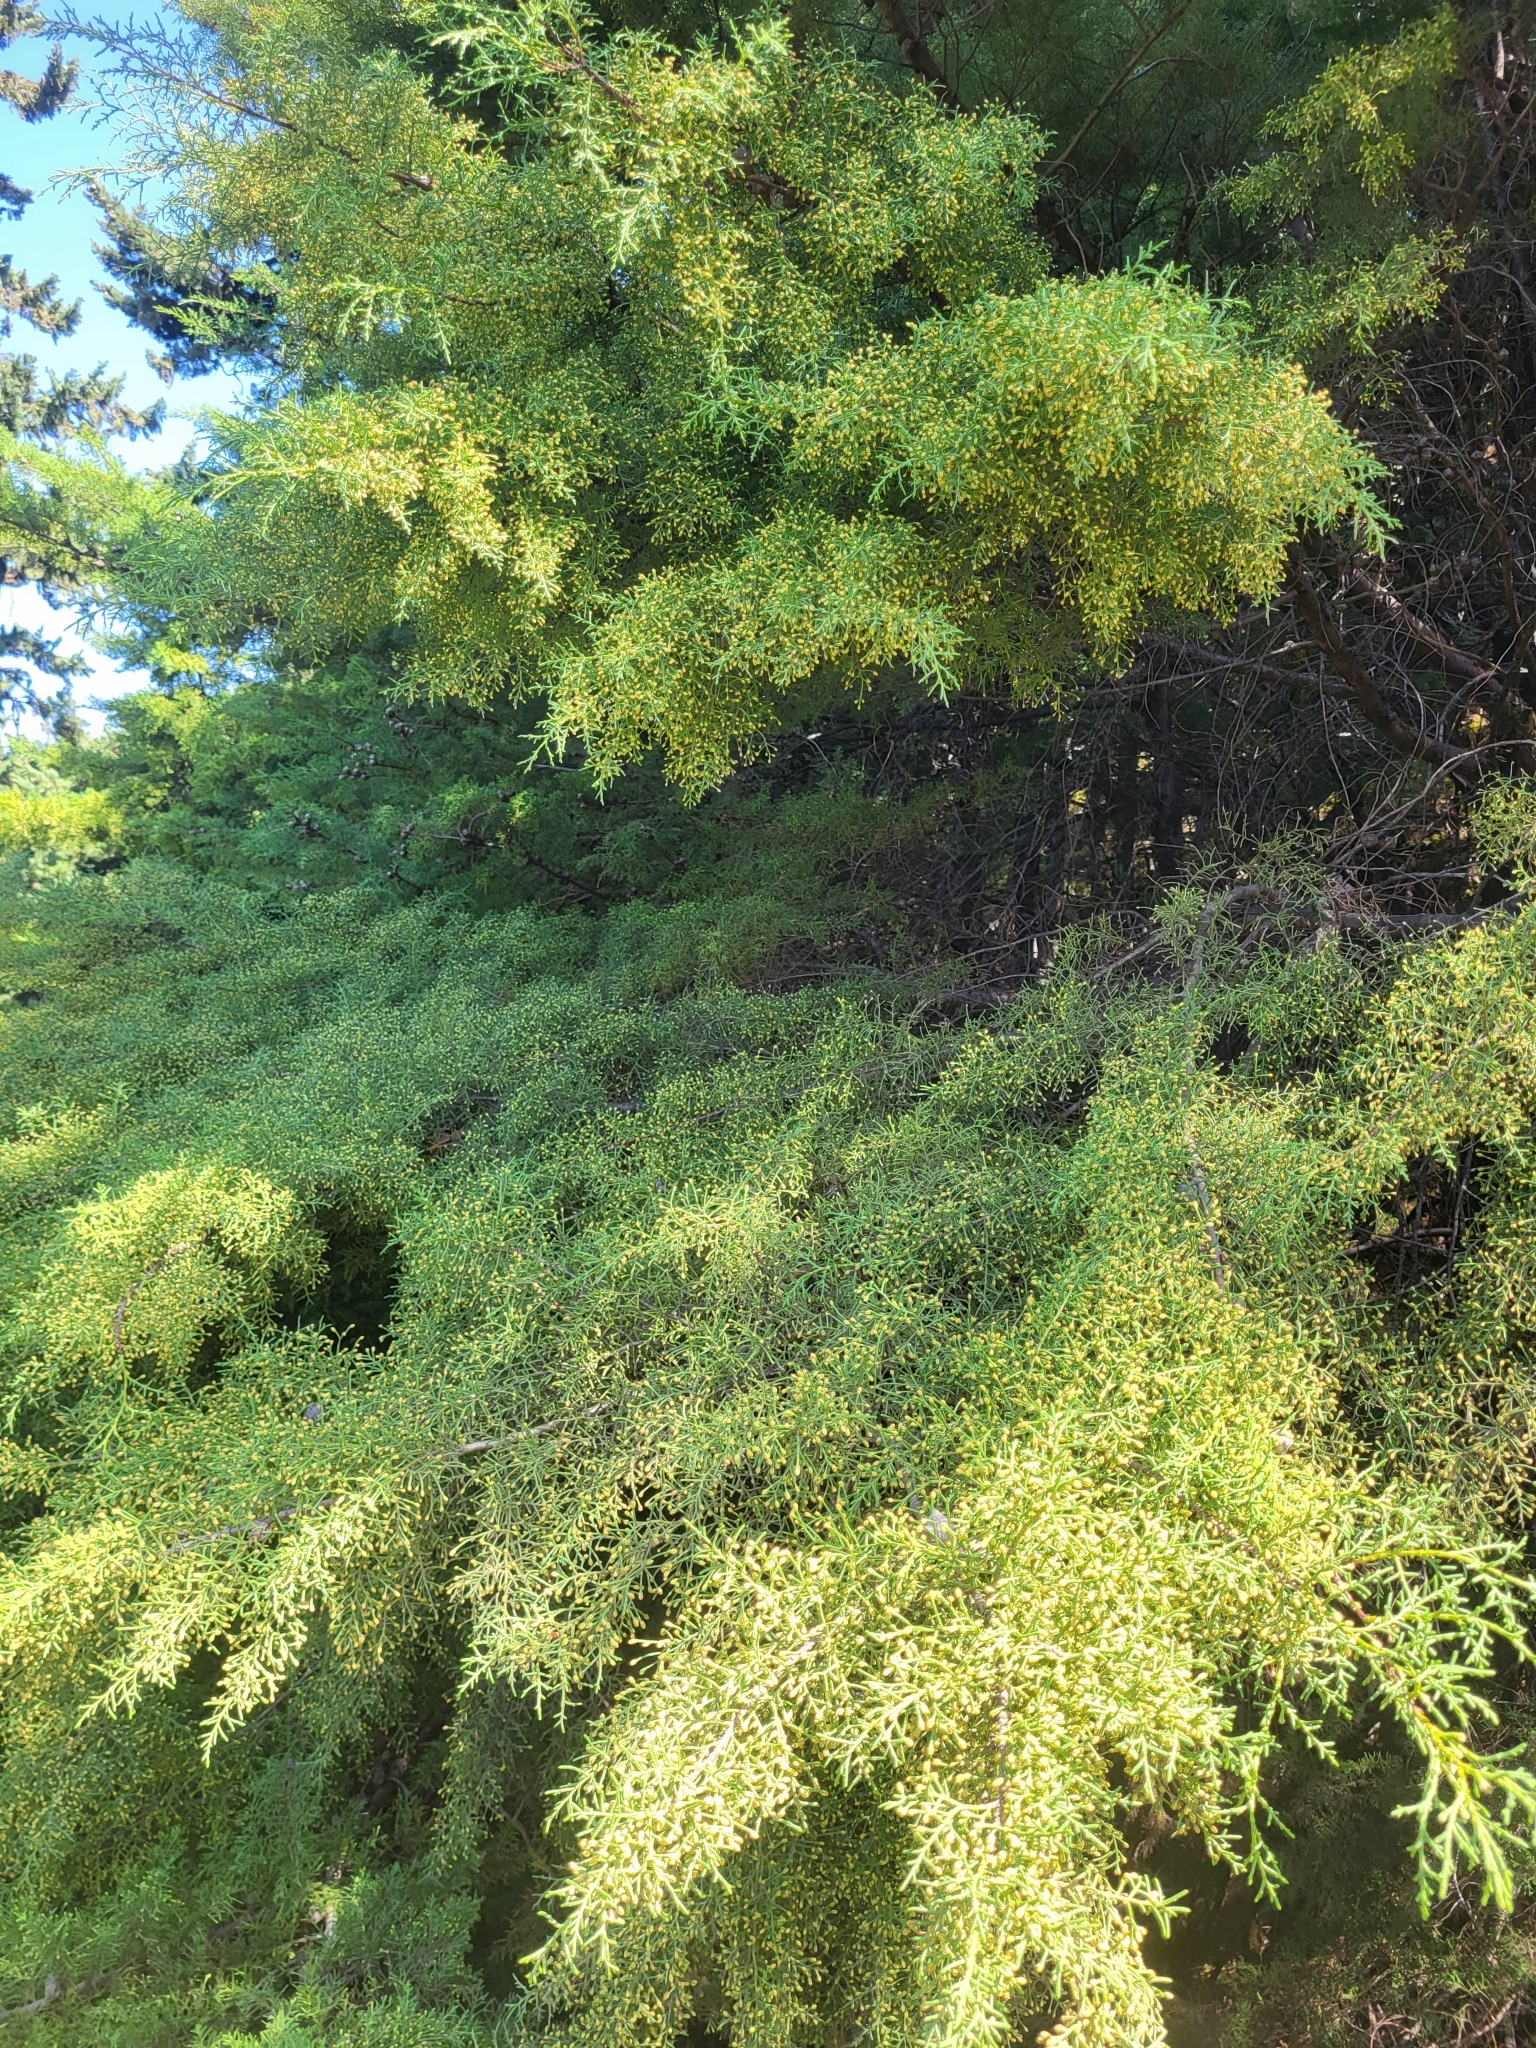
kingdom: Plantae
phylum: Tracheophyta
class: Pinopsida
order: Pinales
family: Cupressaceae
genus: Cupressus
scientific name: Cupressus sempervirens
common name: Italian cypress
